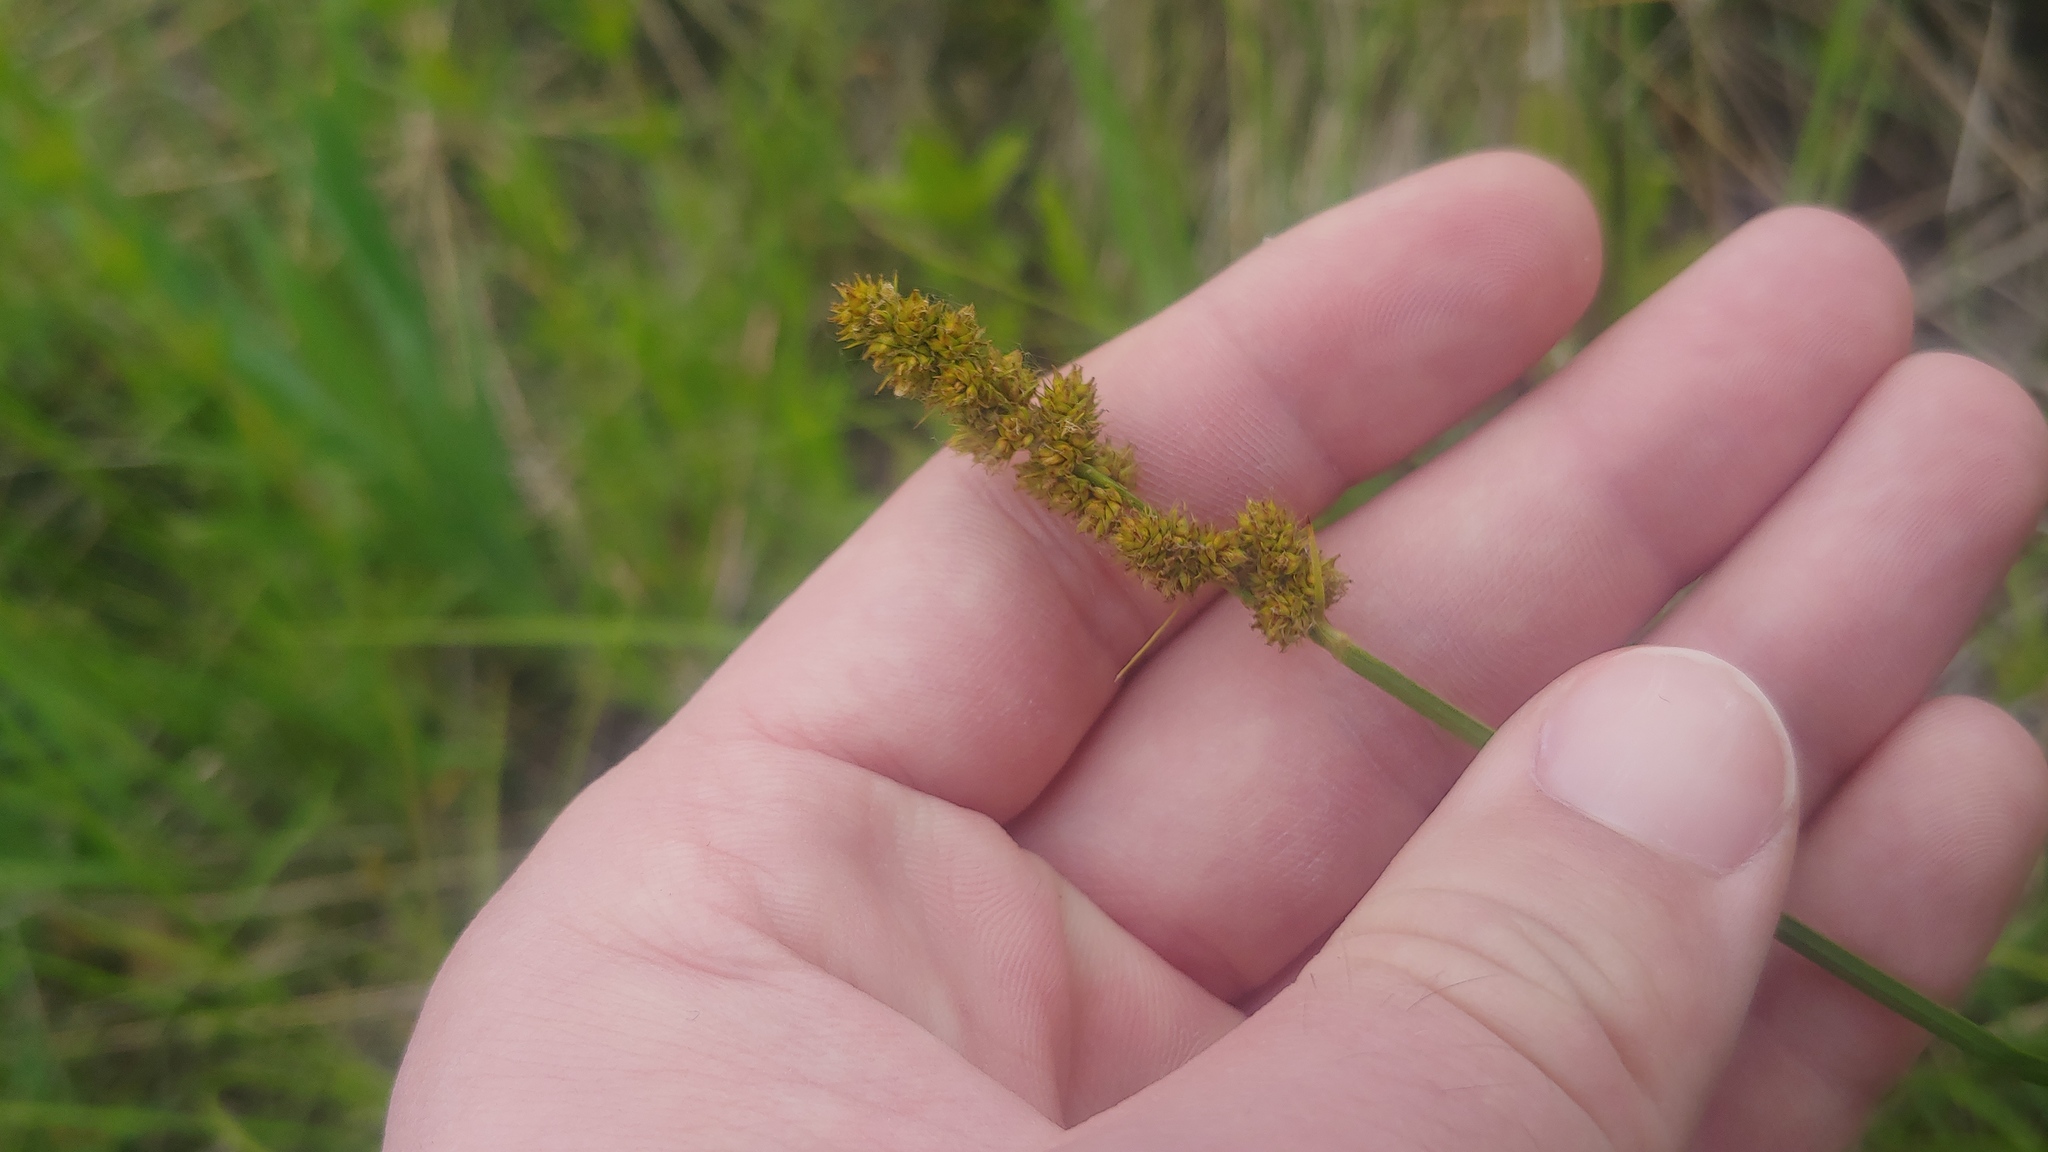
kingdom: Plantae
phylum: Tracheophyta
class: Liliopsida
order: Poales
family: Cyperaceae
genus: Carex
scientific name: Carex annectens
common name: Large fox sedge
